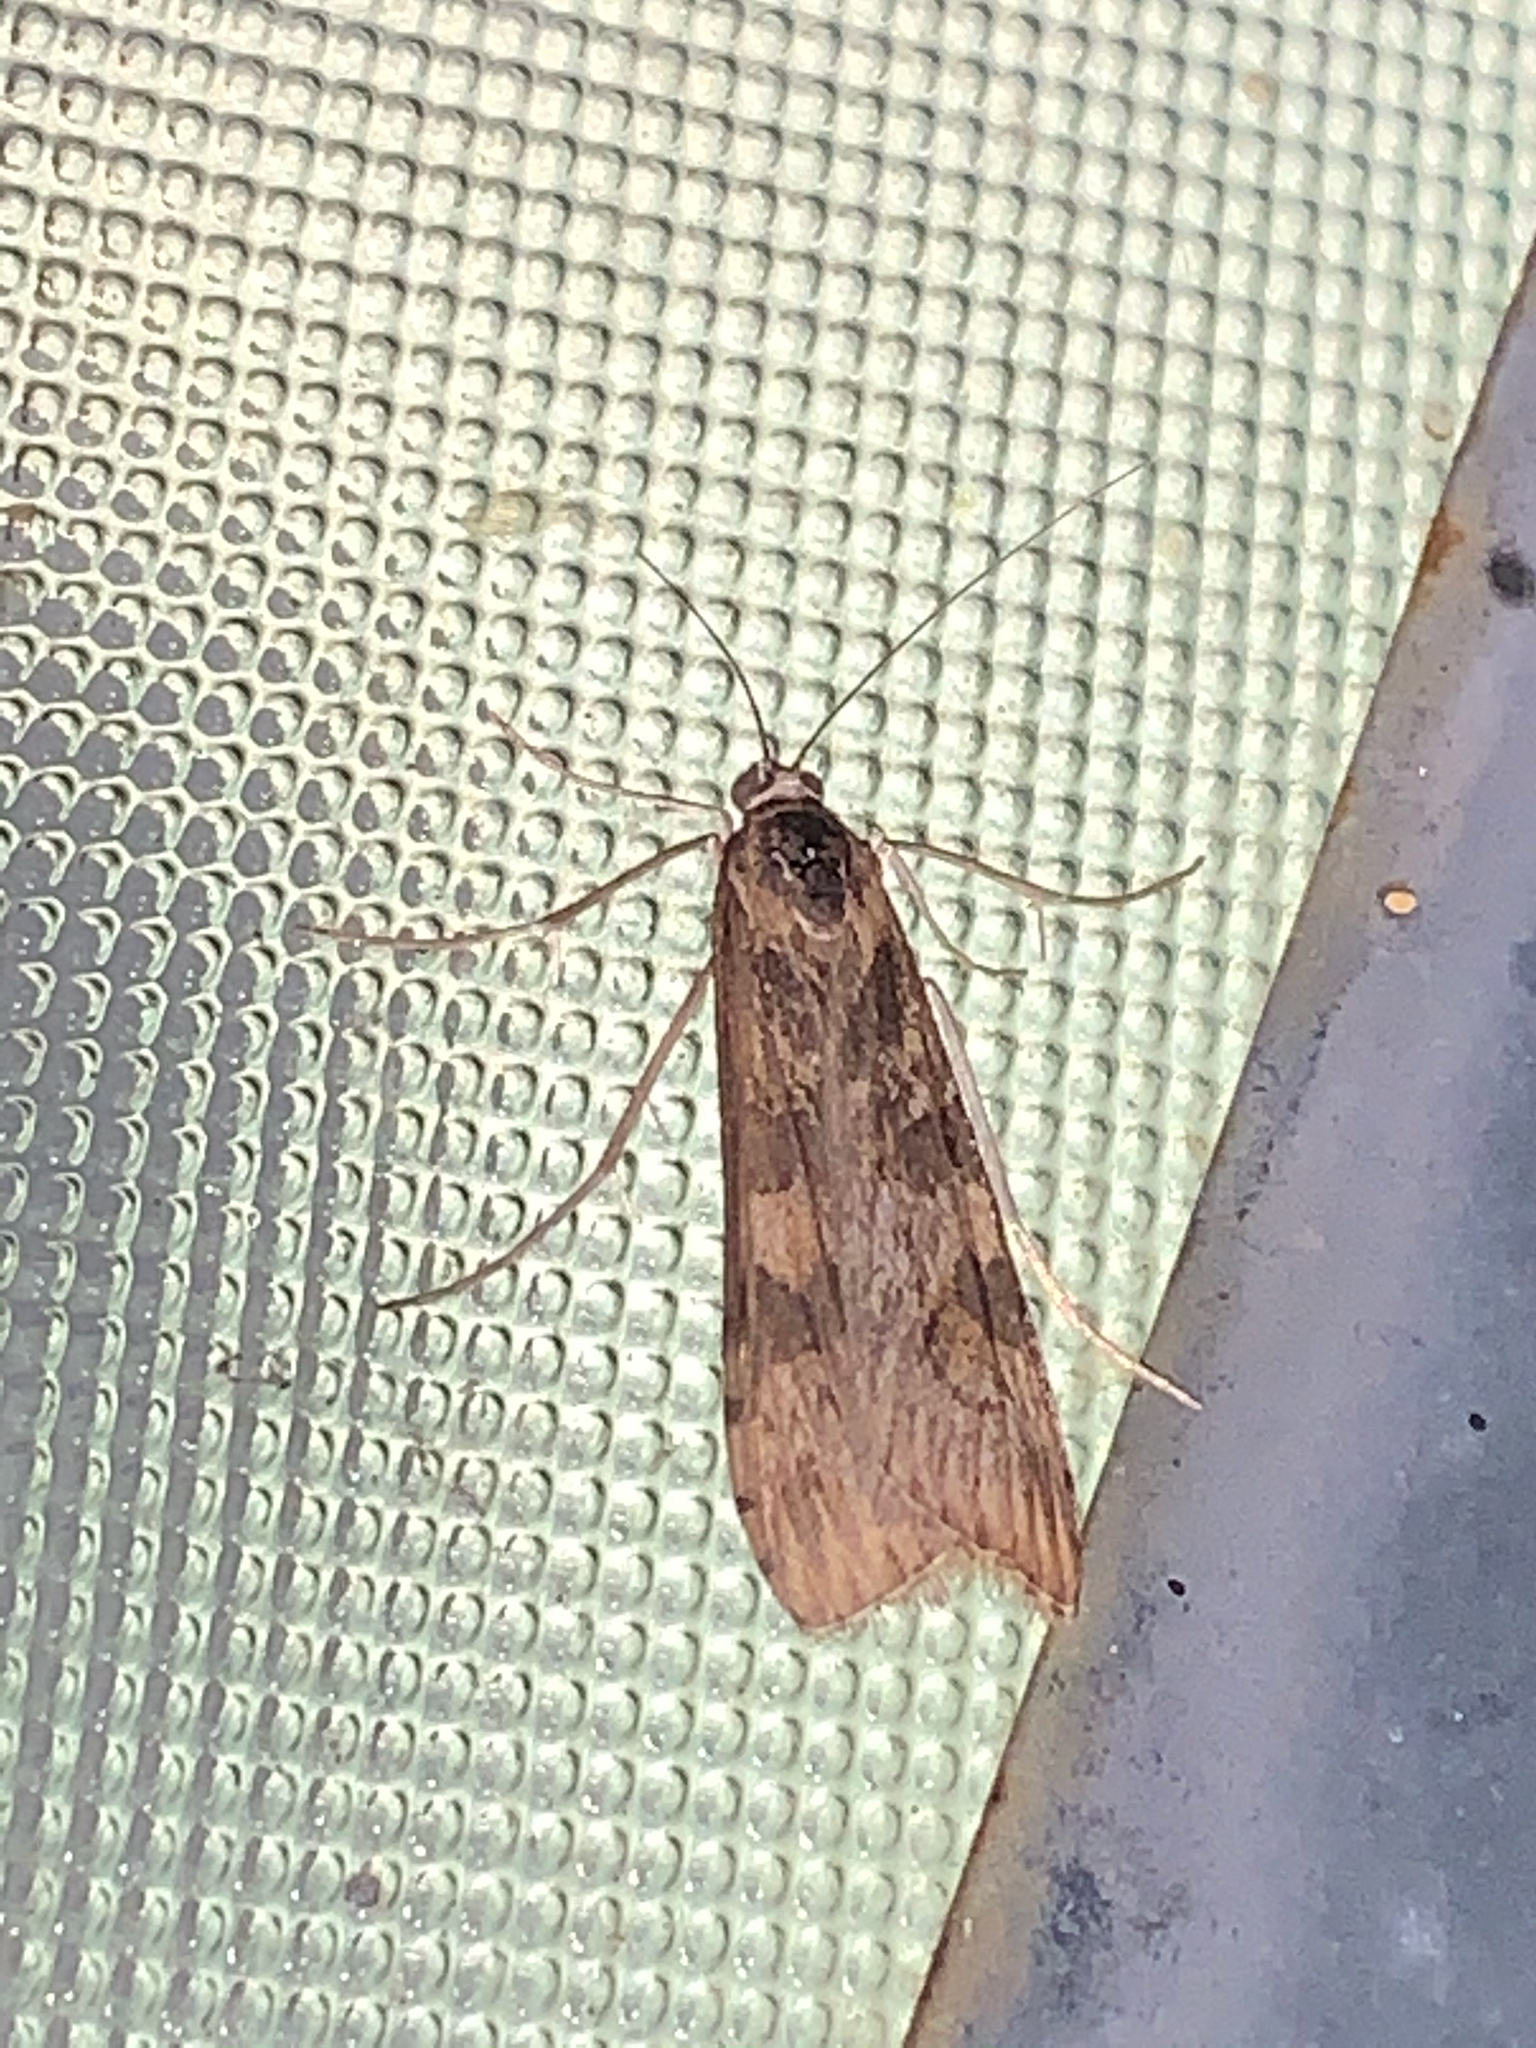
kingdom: Animalia
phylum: Arthropoda
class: Insecta
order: Lepidoptera
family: Crambidae
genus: Nomophila
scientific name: Nomophila nearctica
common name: American rush veneer
